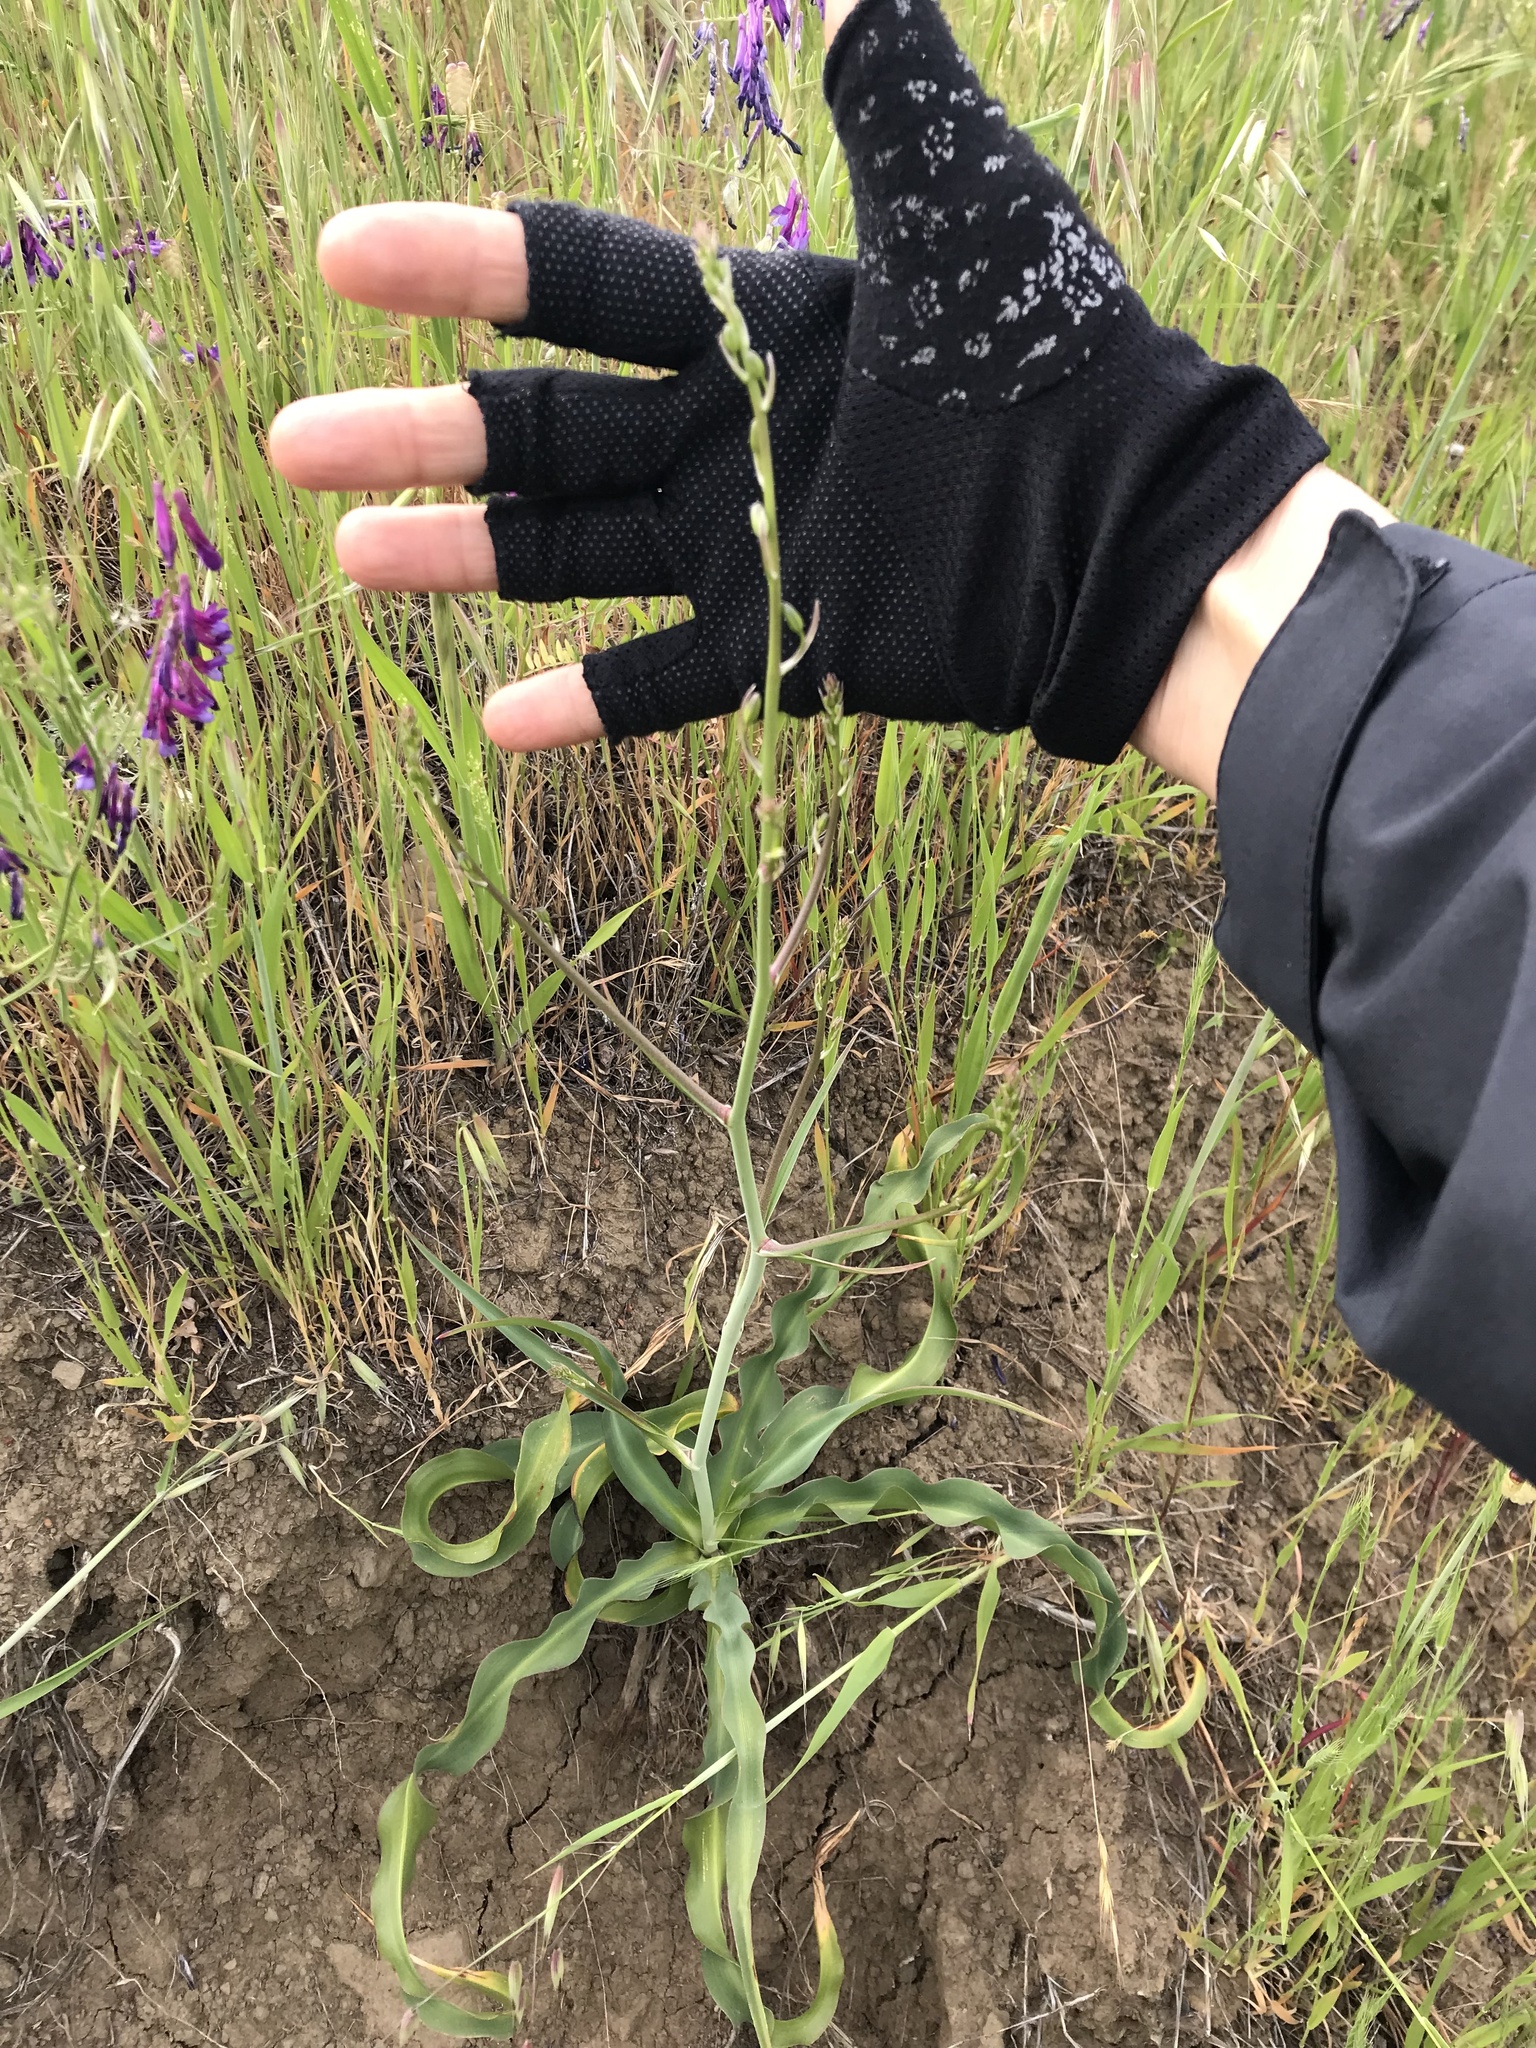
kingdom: Plantae
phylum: Tracheophyta
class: Liliopsida
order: Asparagales
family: Asparagaceae
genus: Chlorogalum
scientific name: Chlorogalum pomeridianum
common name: Amole
